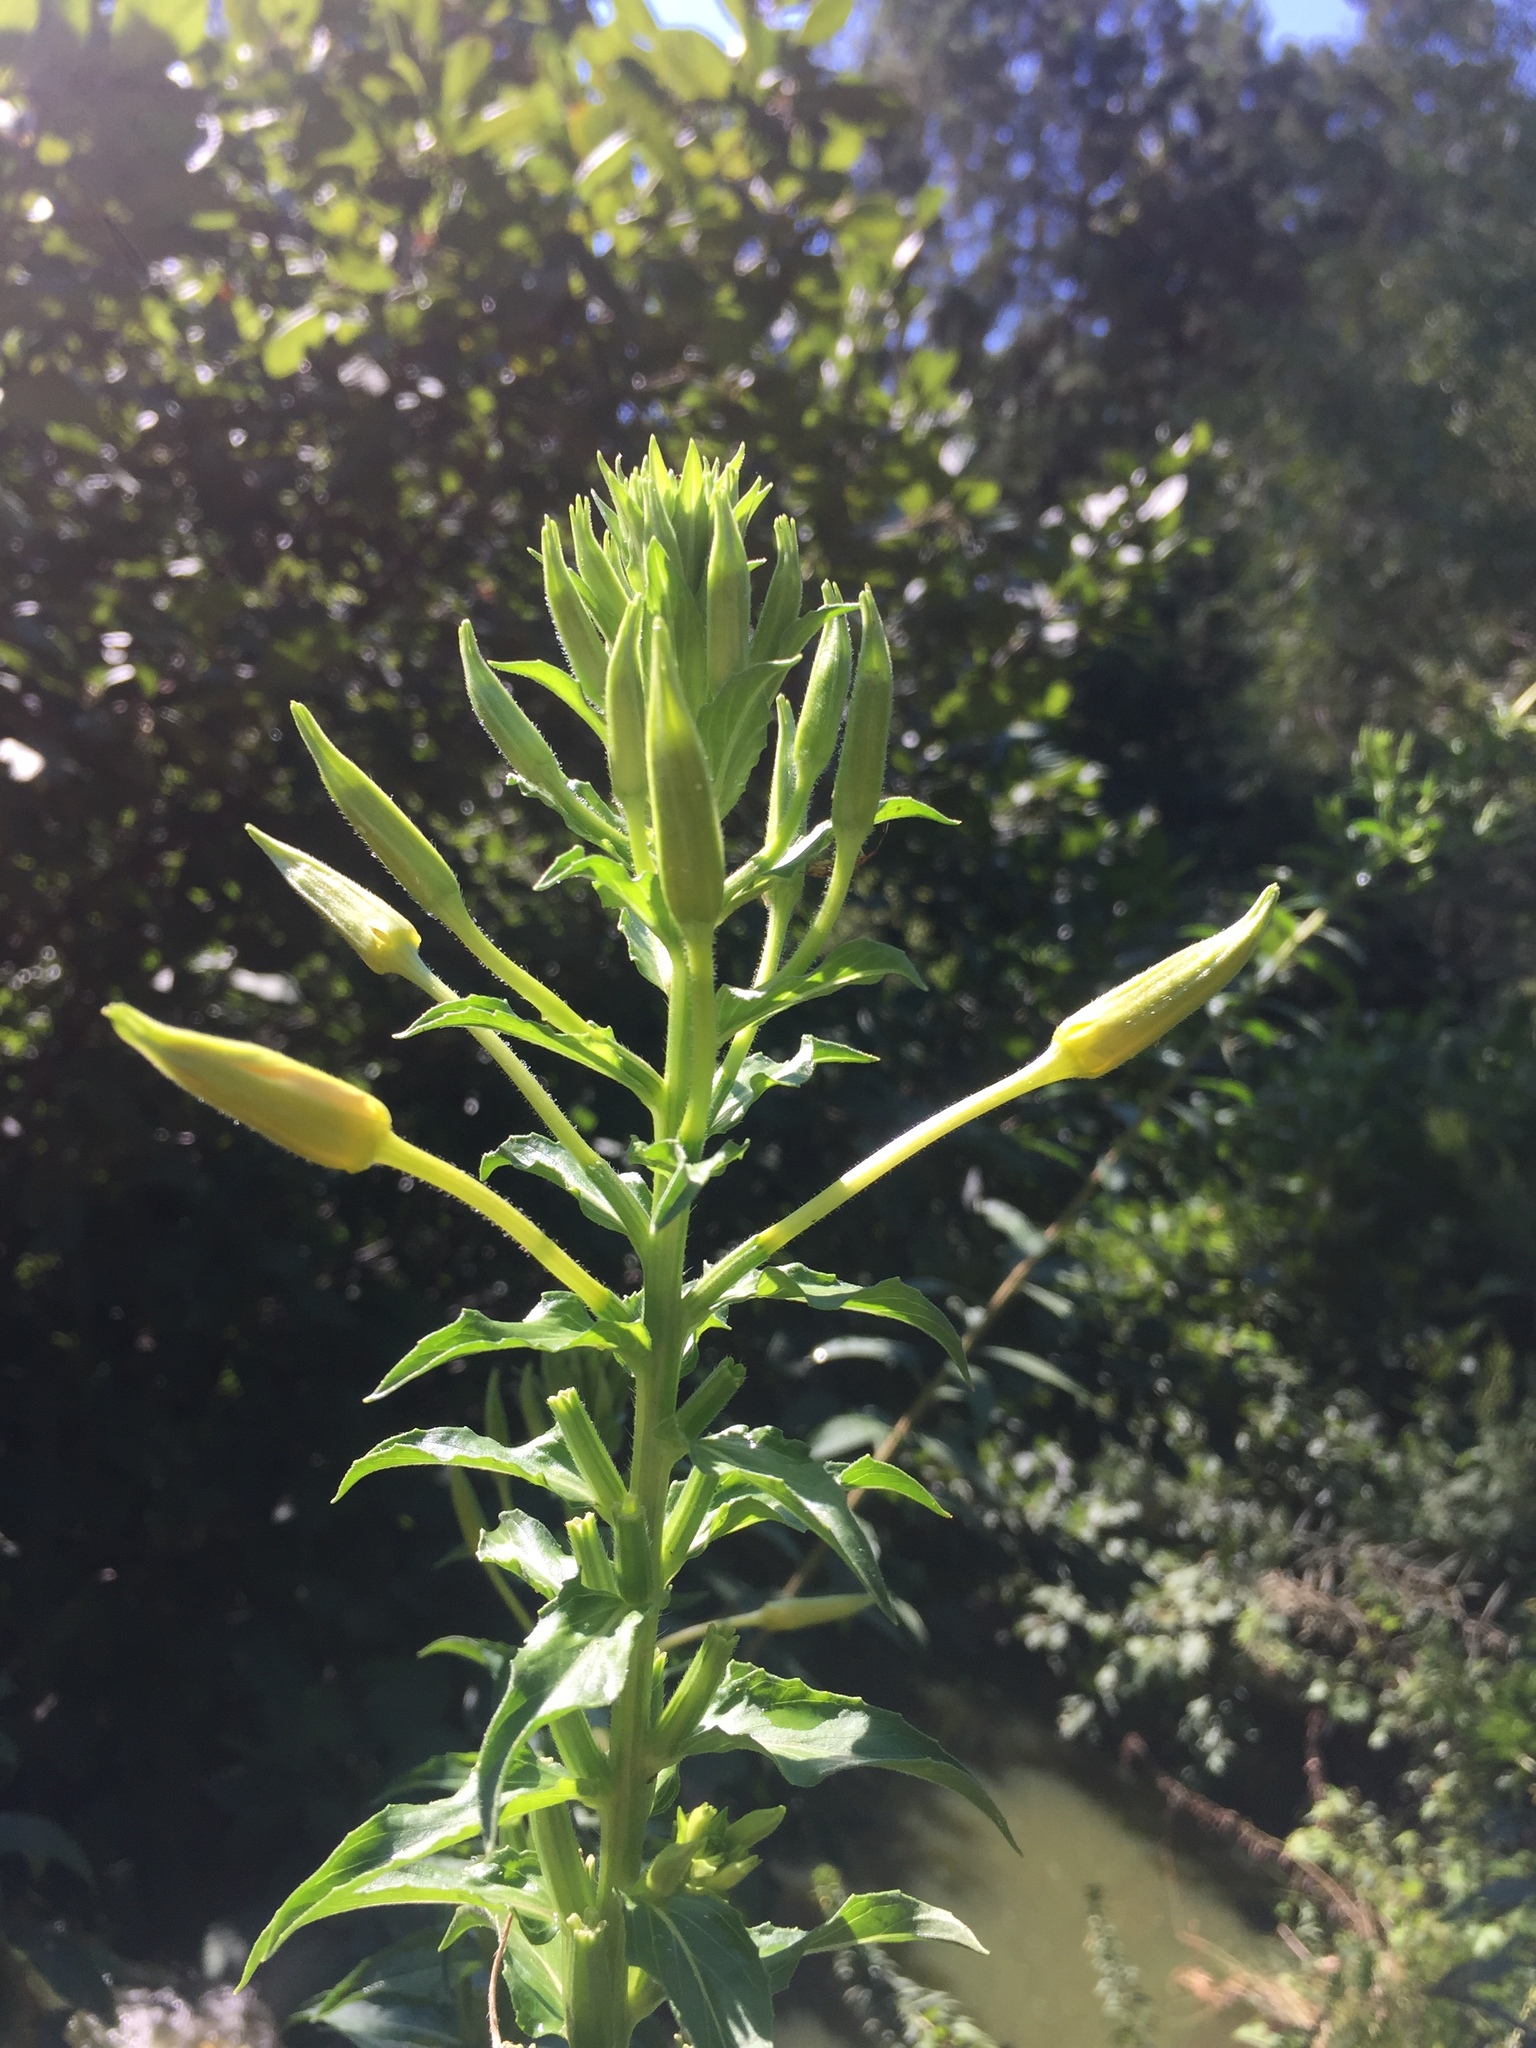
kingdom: Plantae
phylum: Tracheophyta
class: Magnoliopsida
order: Myrtales
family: Onagraceae
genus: Oenothera
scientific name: Oenothera biennis
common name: Common evening-primrose
